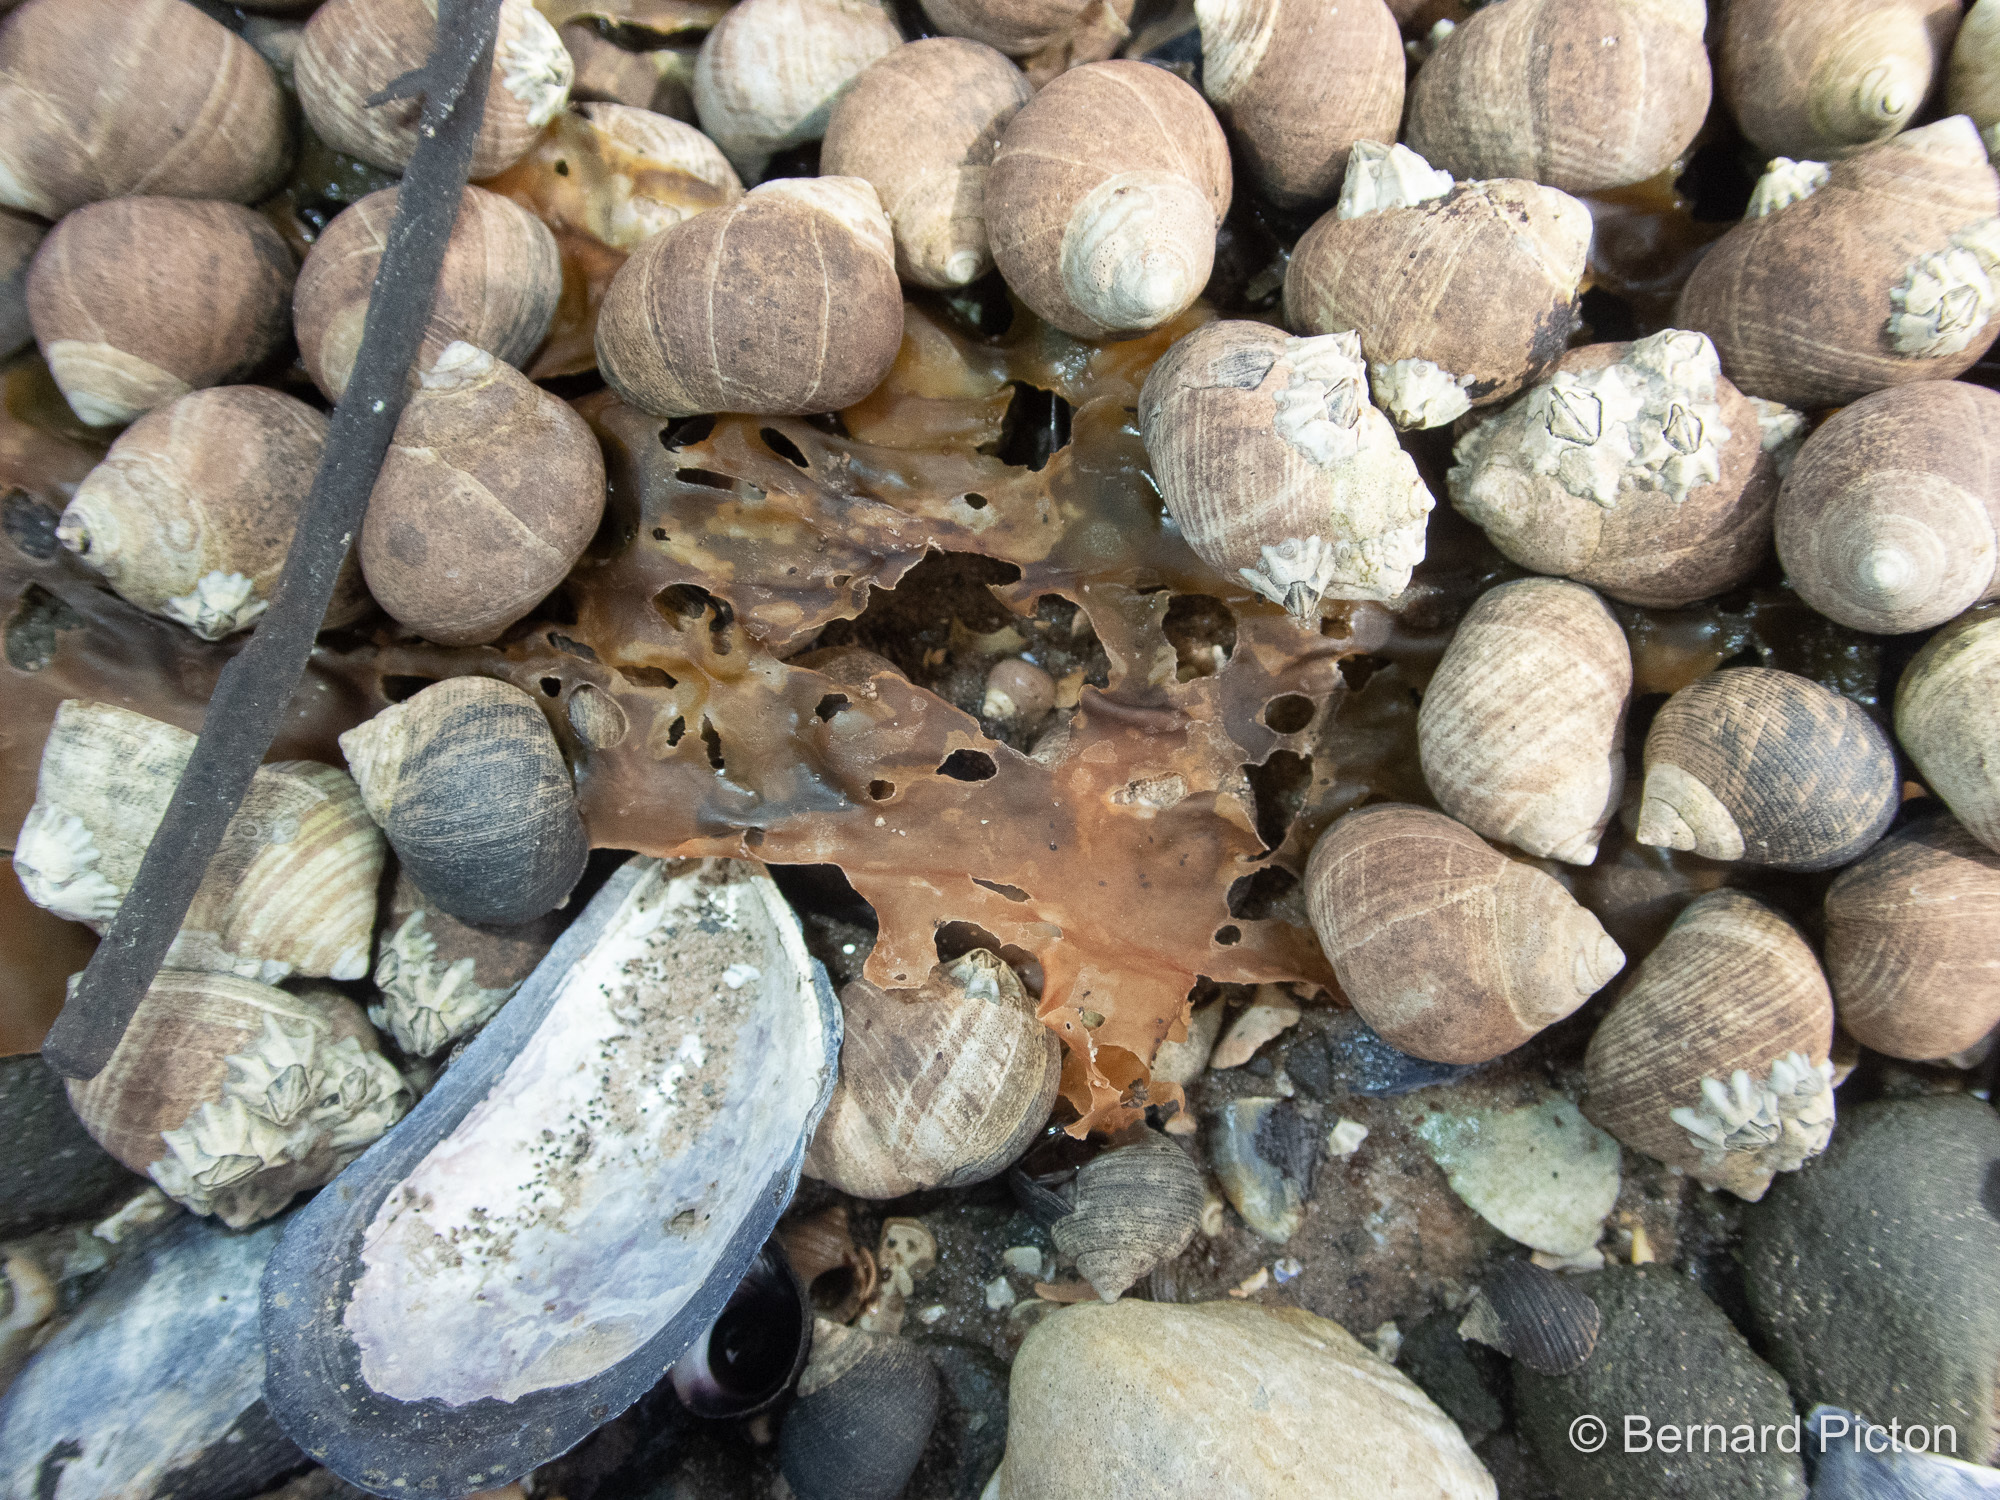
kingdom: Animalia
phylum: Mollusca
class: Gastropoda
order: Littorinimorpha
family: Littorinidae
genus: Littorina
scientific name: Littorina littorea
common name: Common periwinkle
